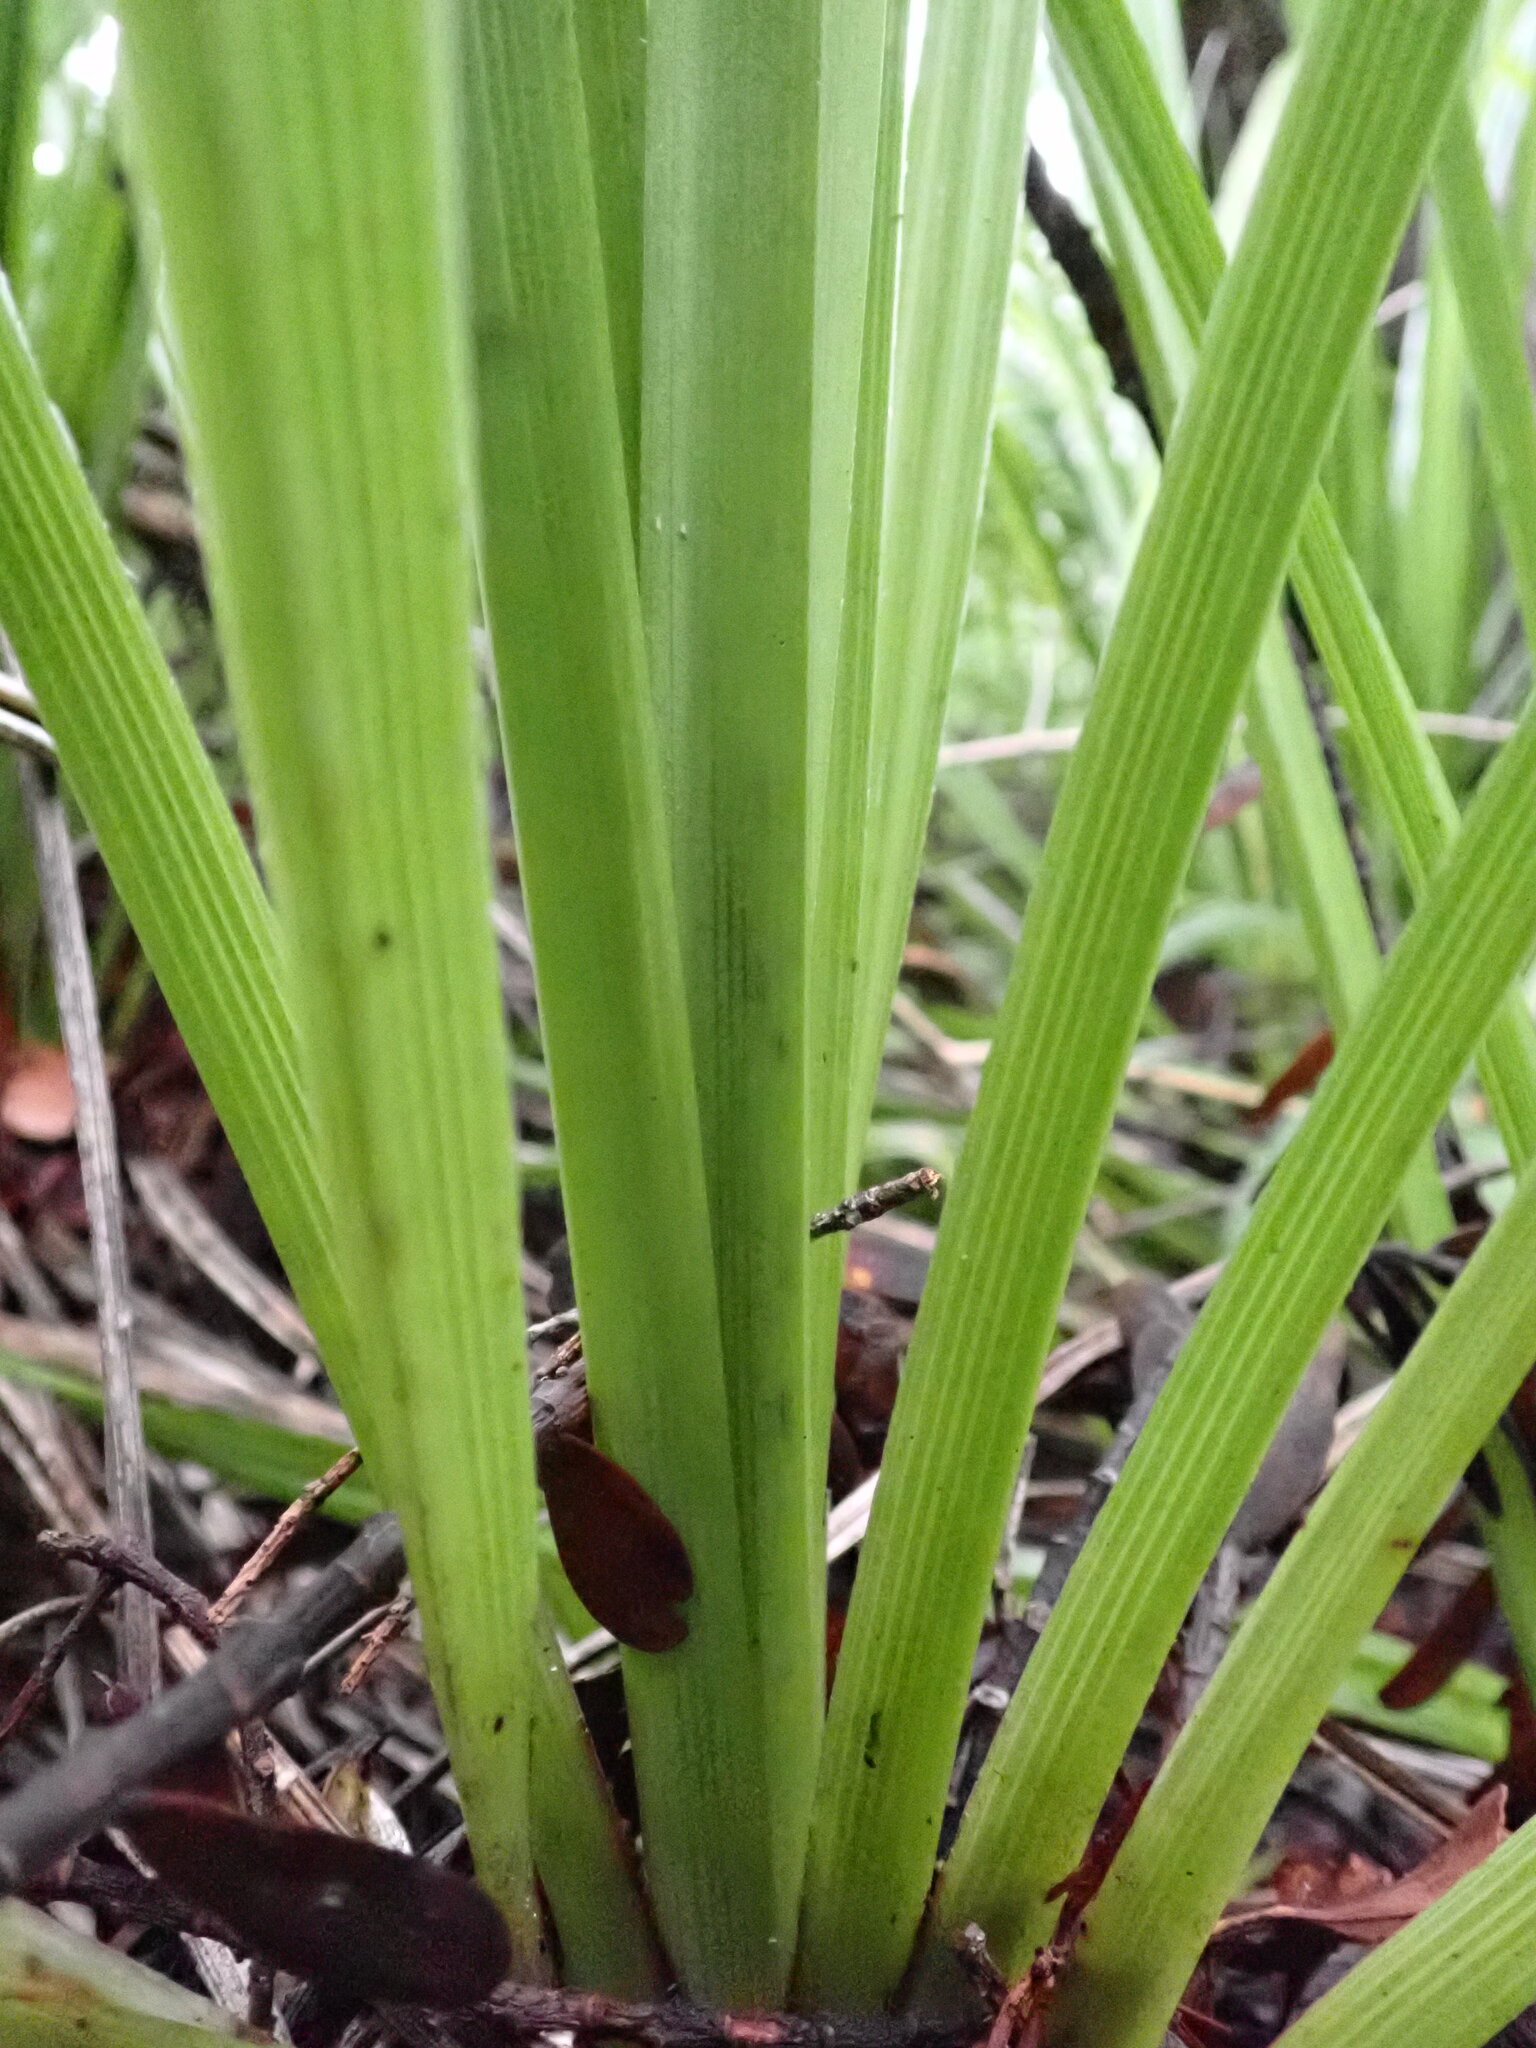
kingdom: Plantae
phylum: Tracheophyta
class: Liliopsida
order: Asparagales
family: Asteliaceae
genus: Astelia
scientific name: Astelia trinervia
